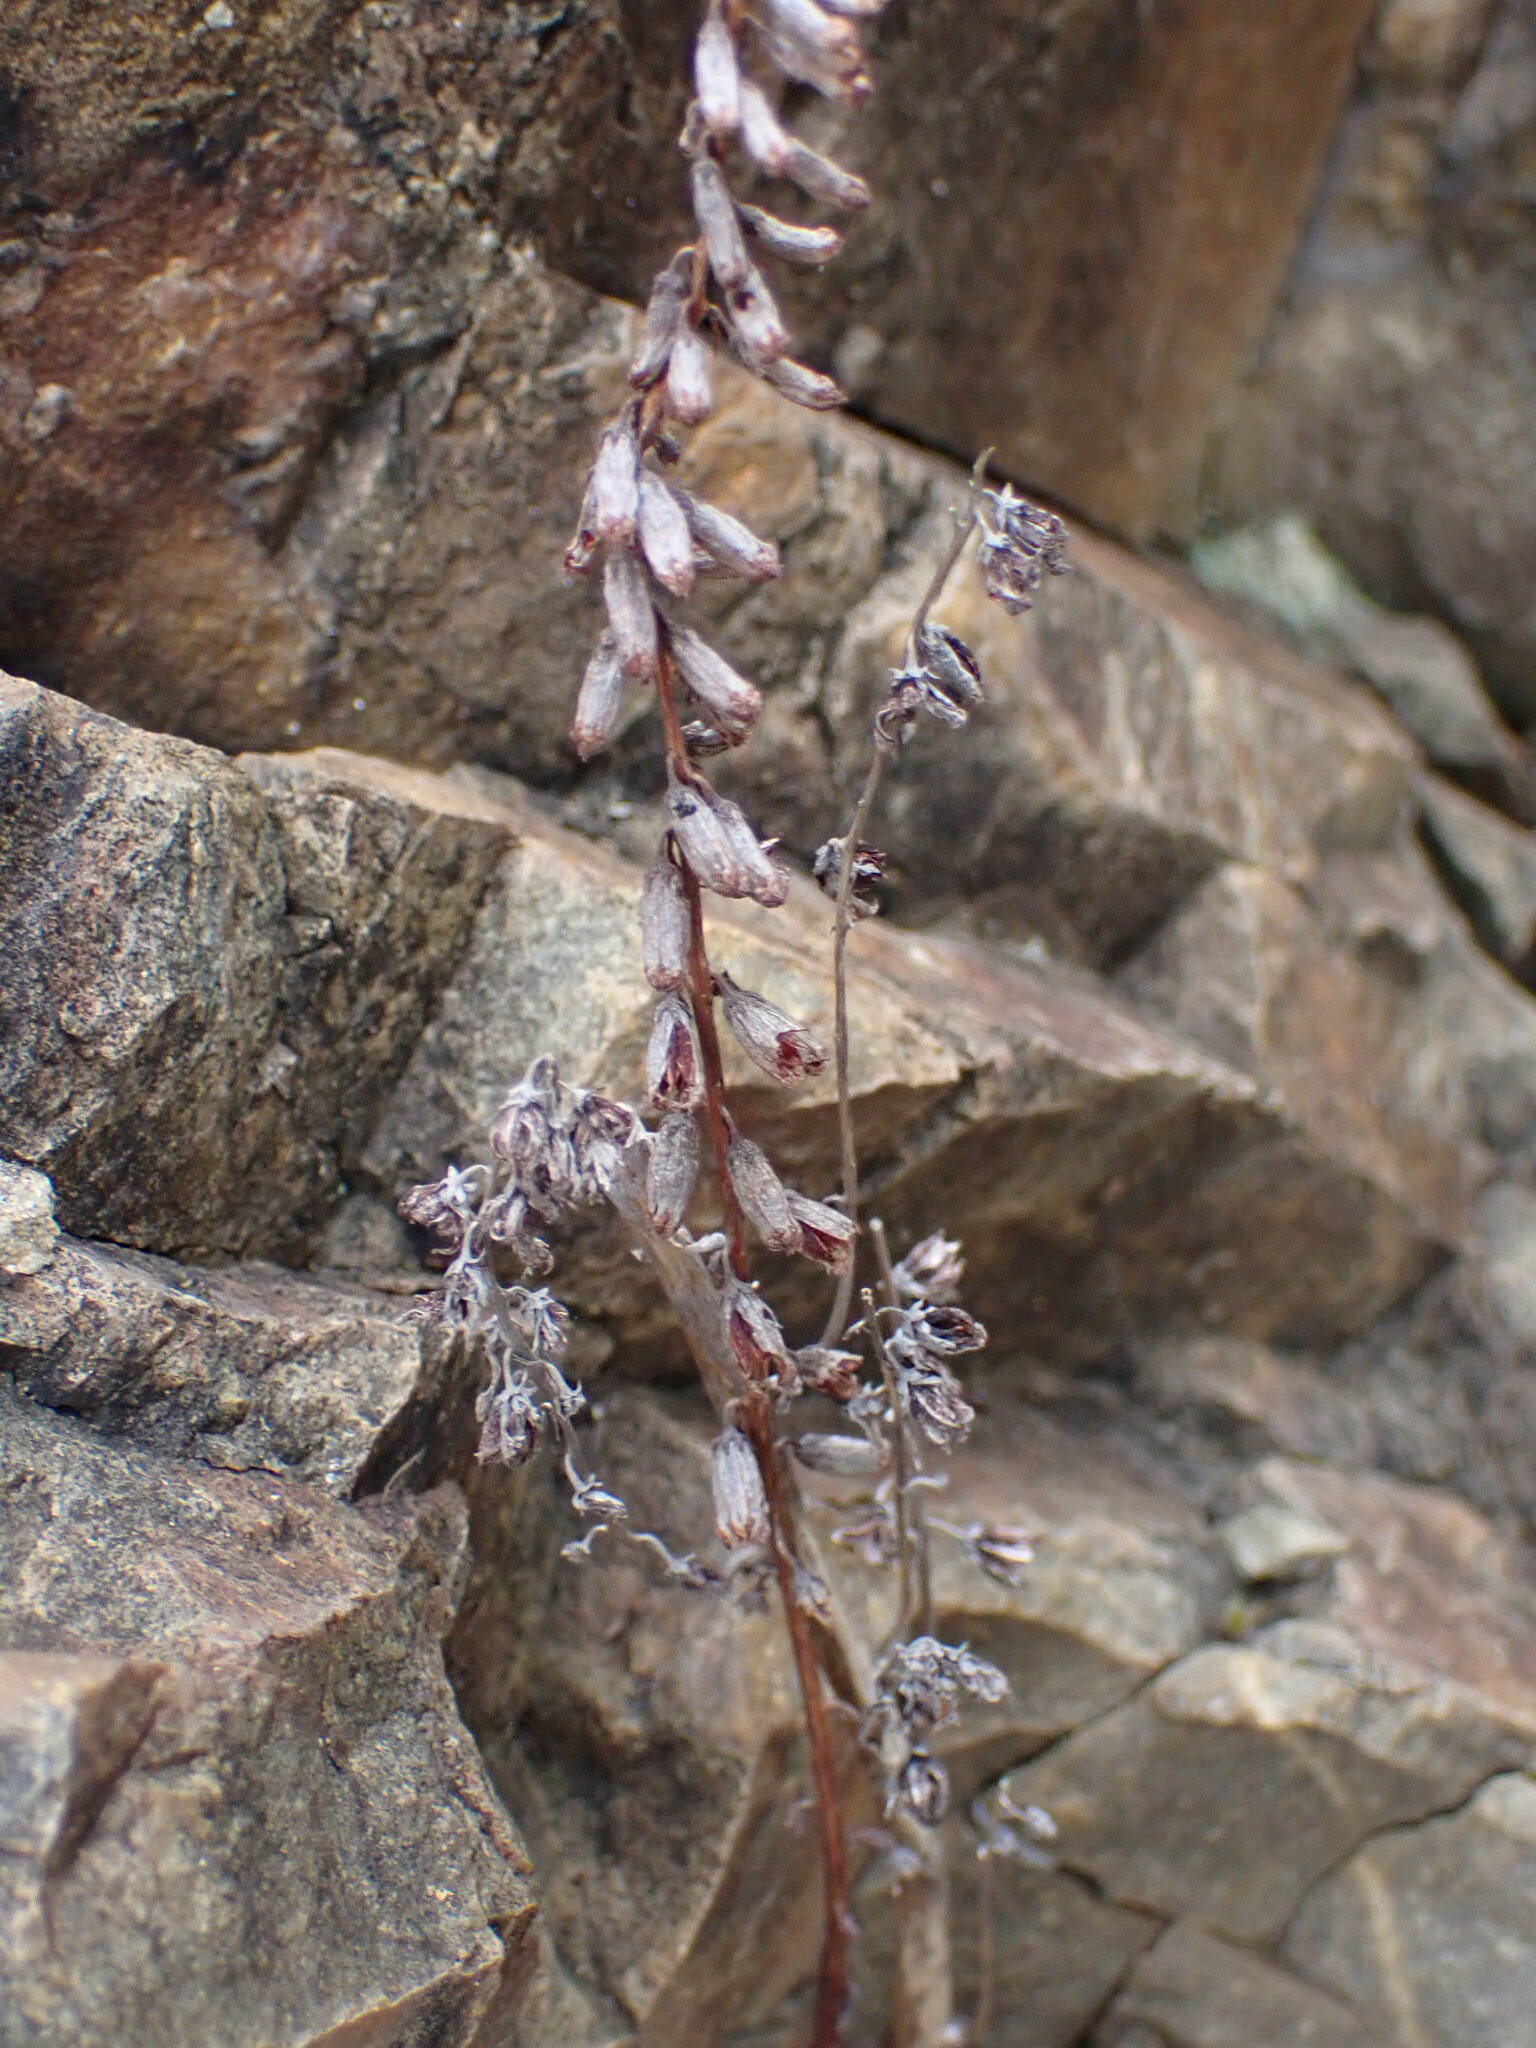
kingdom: Plantae
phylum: Tracheophyta
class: Magnoliopsida
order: Saxifragales
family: Crassulaceae
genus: Umbilicus
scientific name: Umbilicus rupestris
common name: Navelwort
